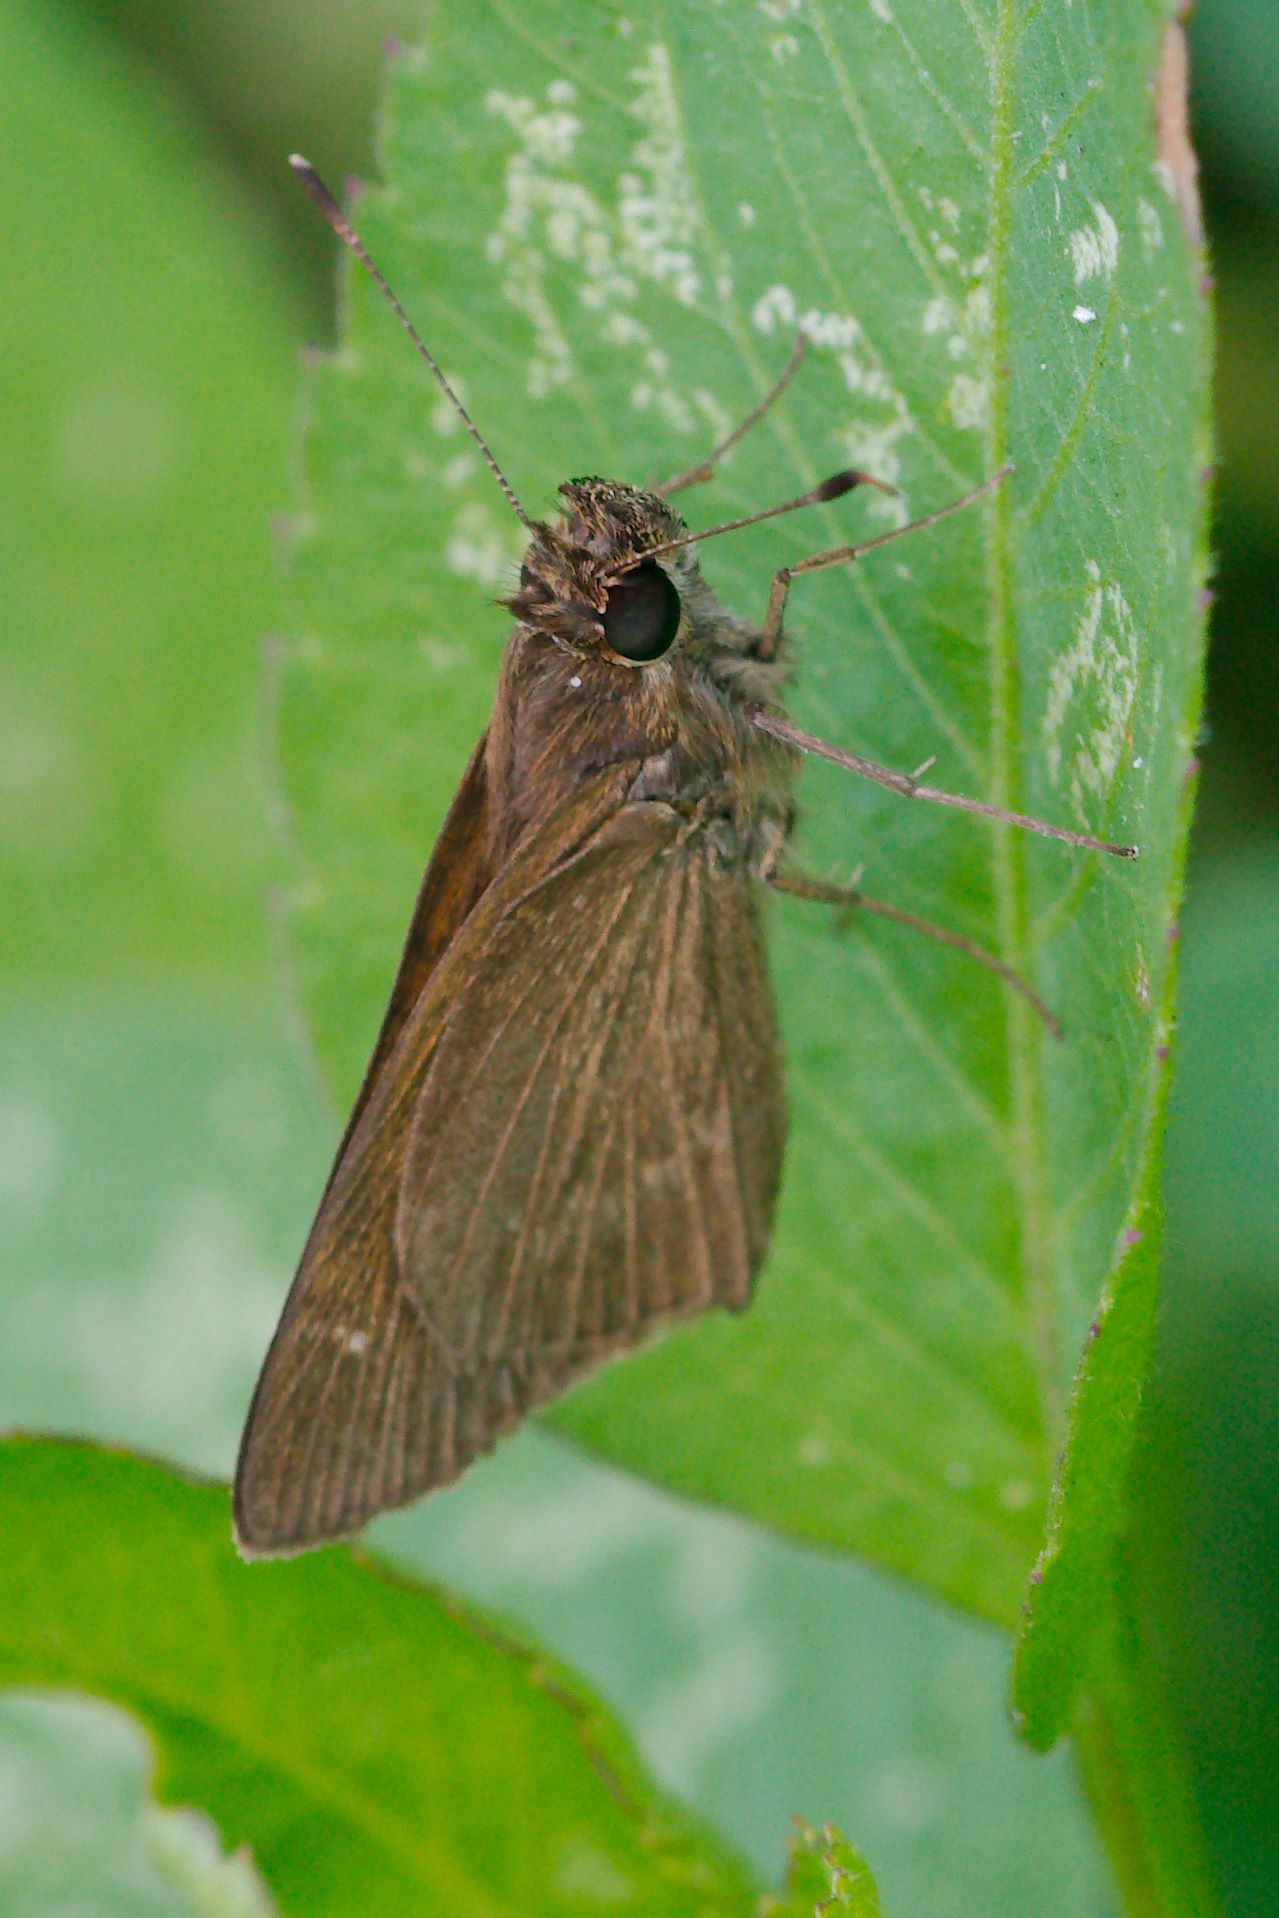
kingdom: Animalia
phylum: Arthropoda
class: Insecta
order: Lepidoptera
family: Hesperiidae
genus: Cymaenes
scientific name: Cymaenes tripunctus
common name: Dingy dotted skipper
